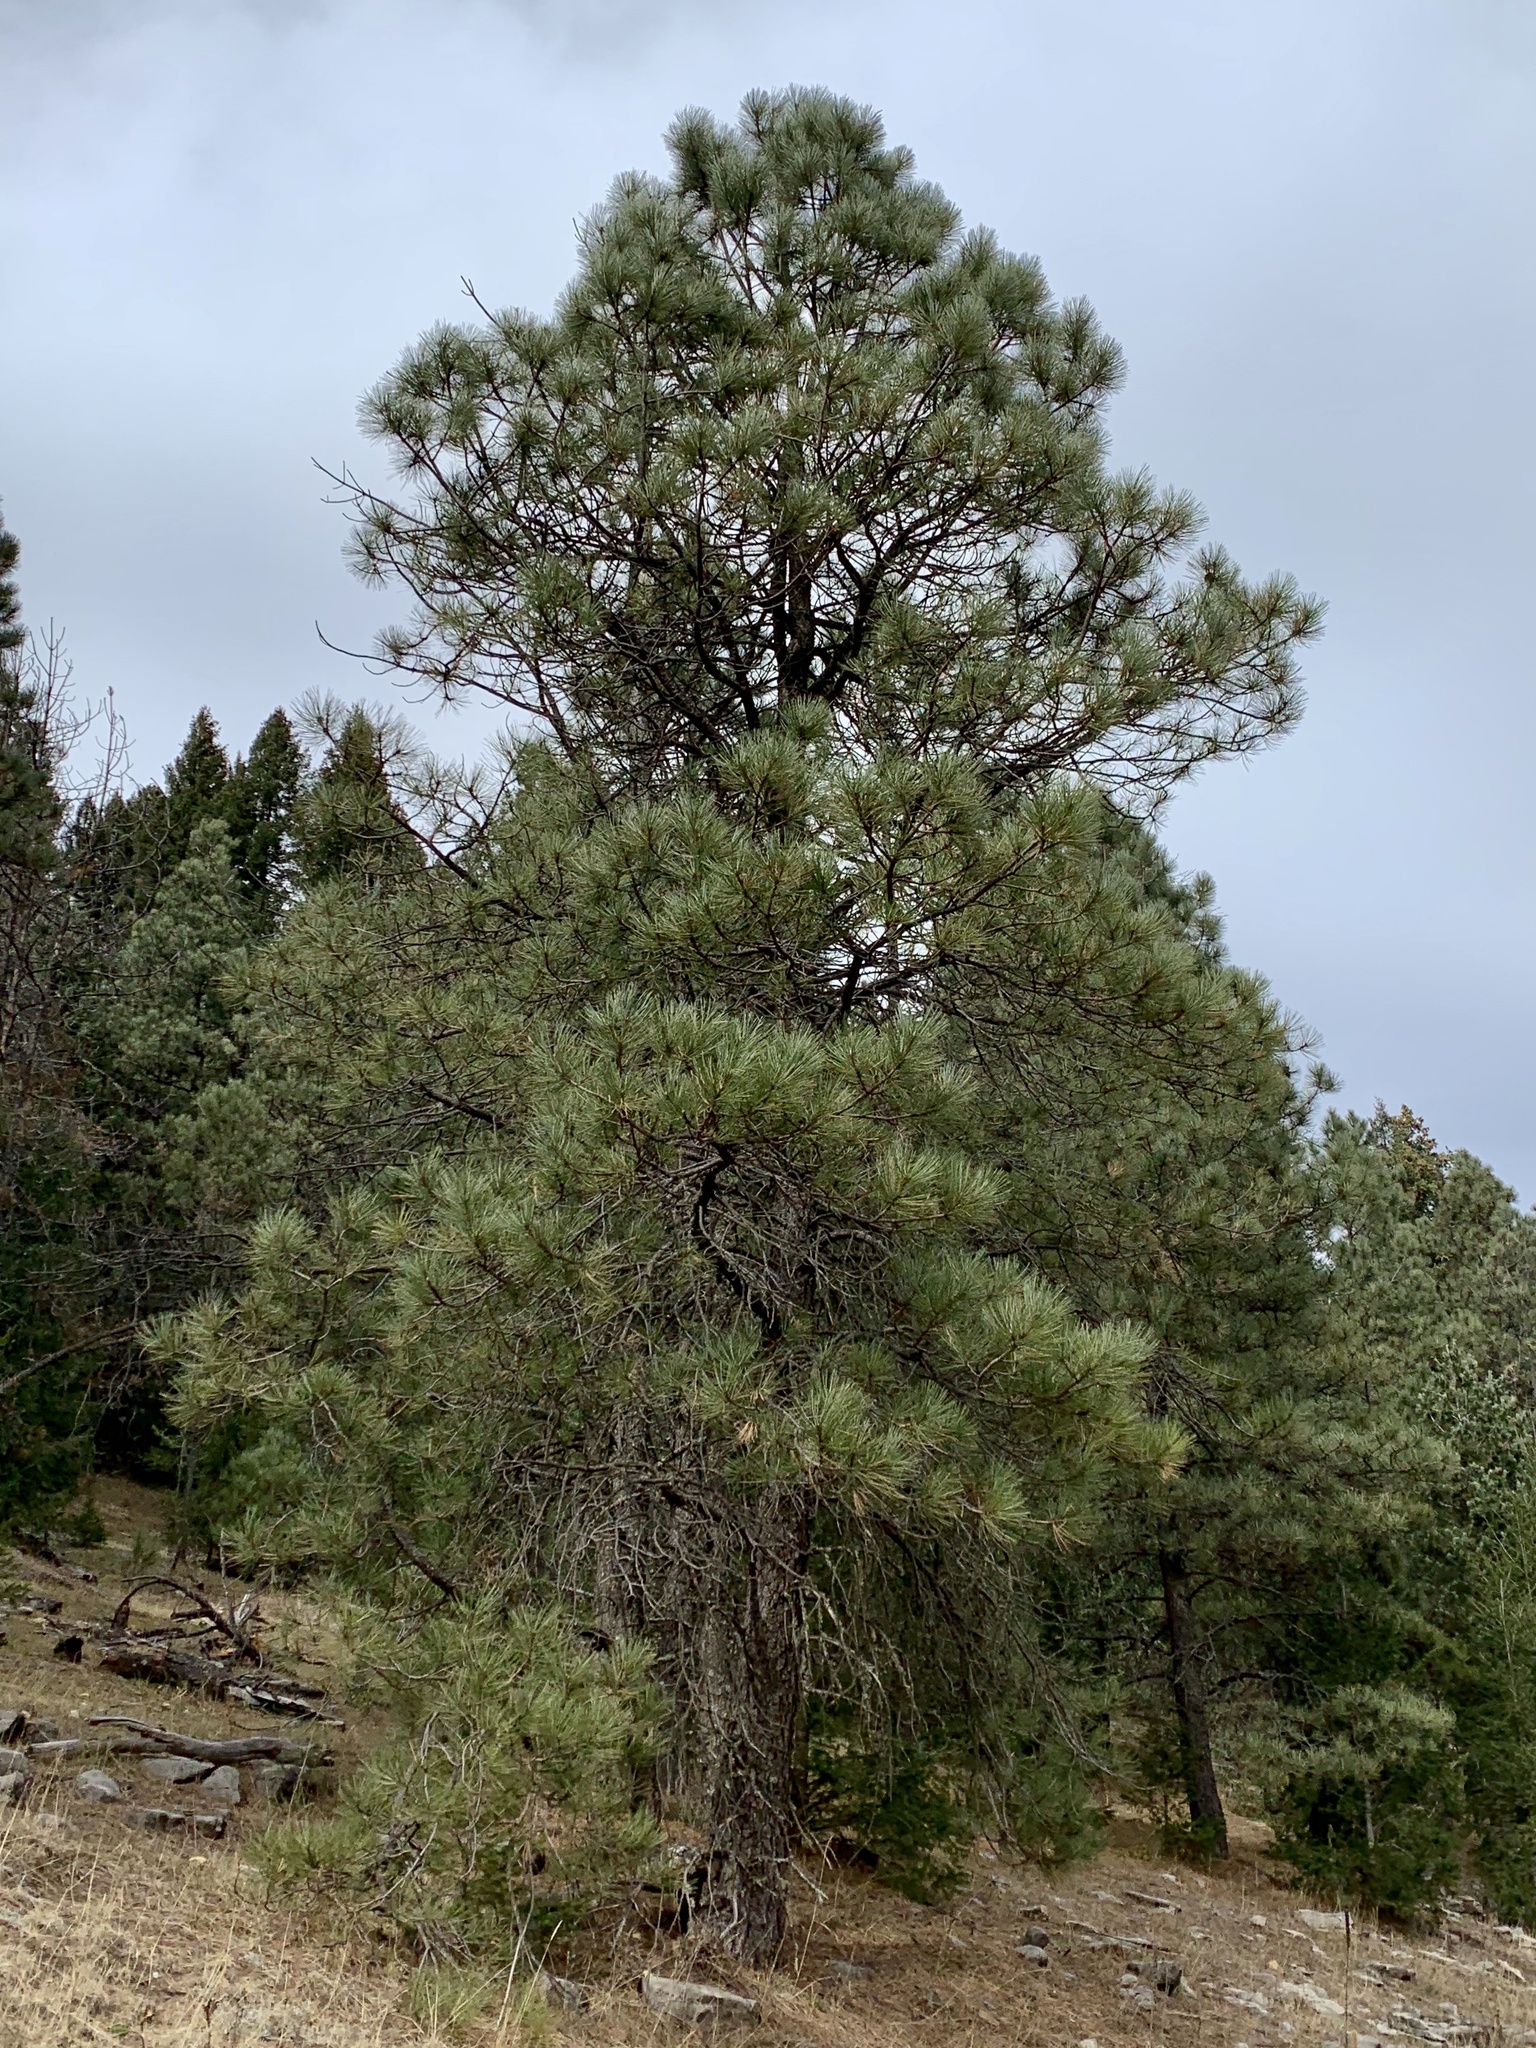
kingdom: Plantae
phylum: Tracheophyta
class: Pinopsida
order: Pinales
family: Pinaceae
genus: Pinus
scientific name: Pinus ponderosa
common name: Western yellow-pine
